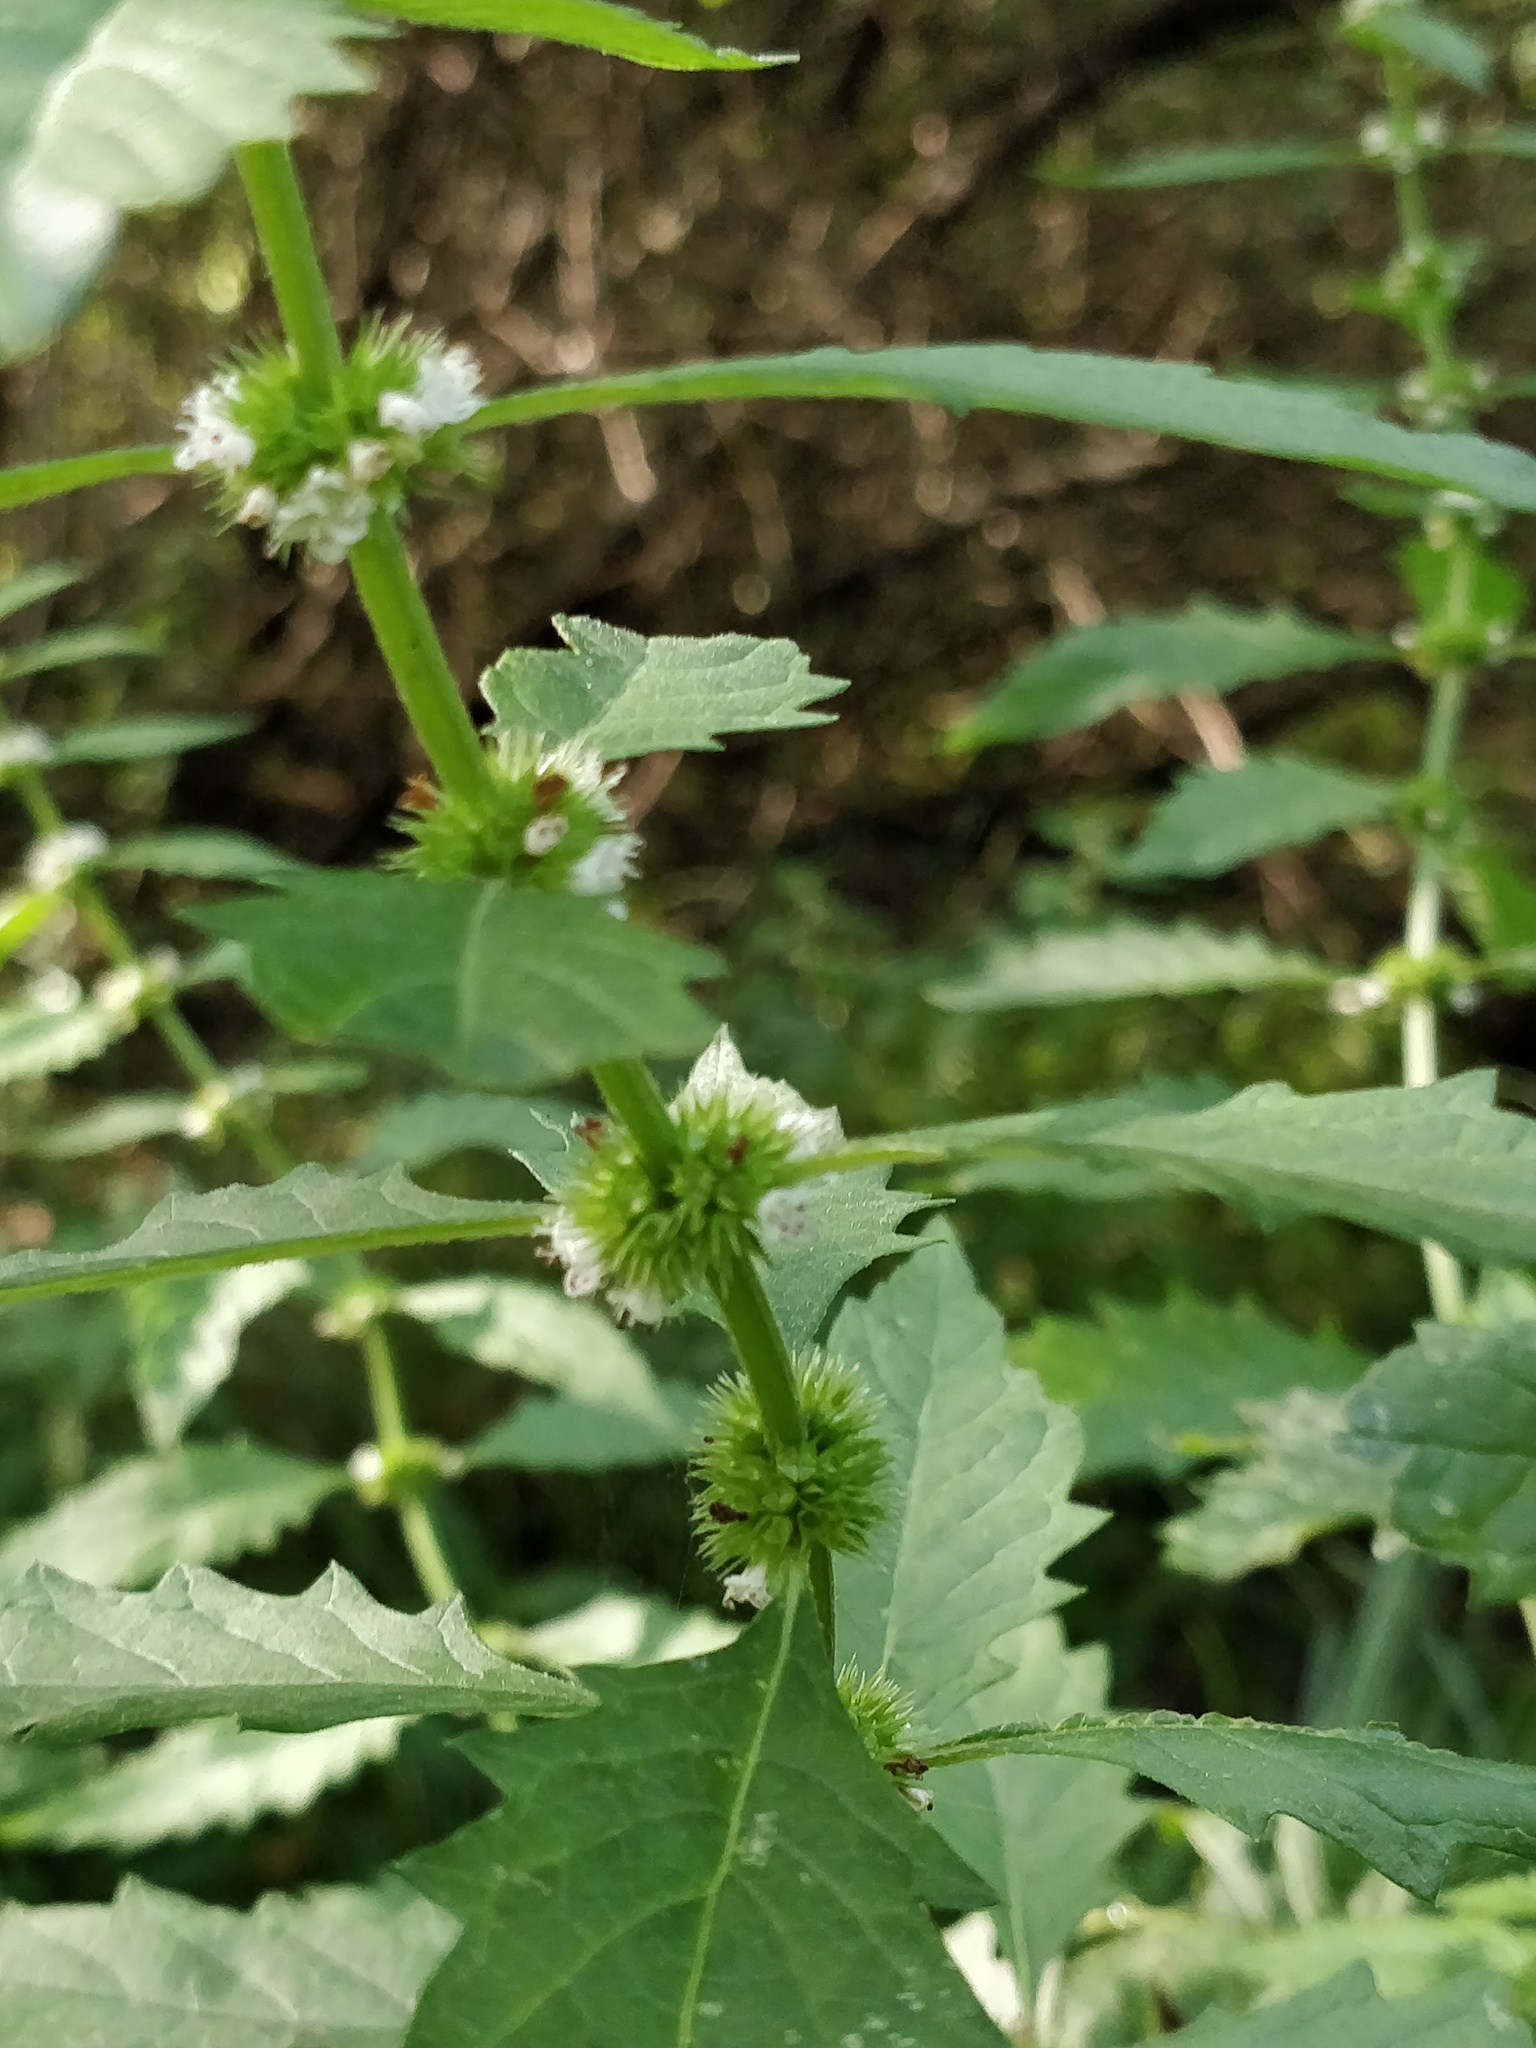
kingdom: Plantae
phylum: Tracheophyta
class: Magnoliopsida
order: Lamiales
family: Lamiaceae
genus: Lycopus
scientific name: Lycopus europaeus
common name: European bugleweed
